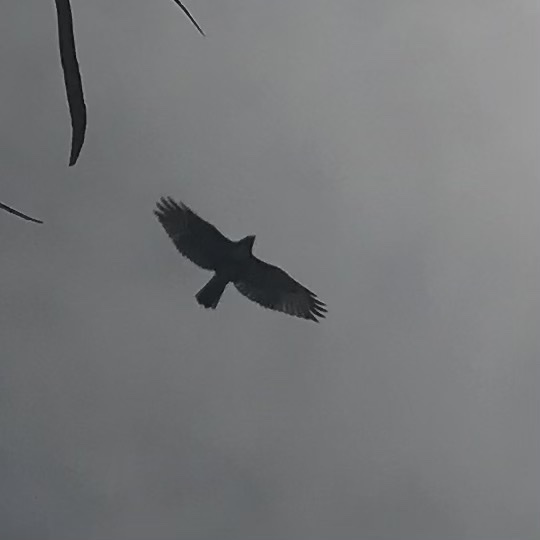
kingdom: Animalia
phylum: Chordata
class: Aves
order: Accipitriformes
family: Accipitridae
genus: Buteo
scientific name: Buteo jamaicensis
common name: Red-tailed hawk
